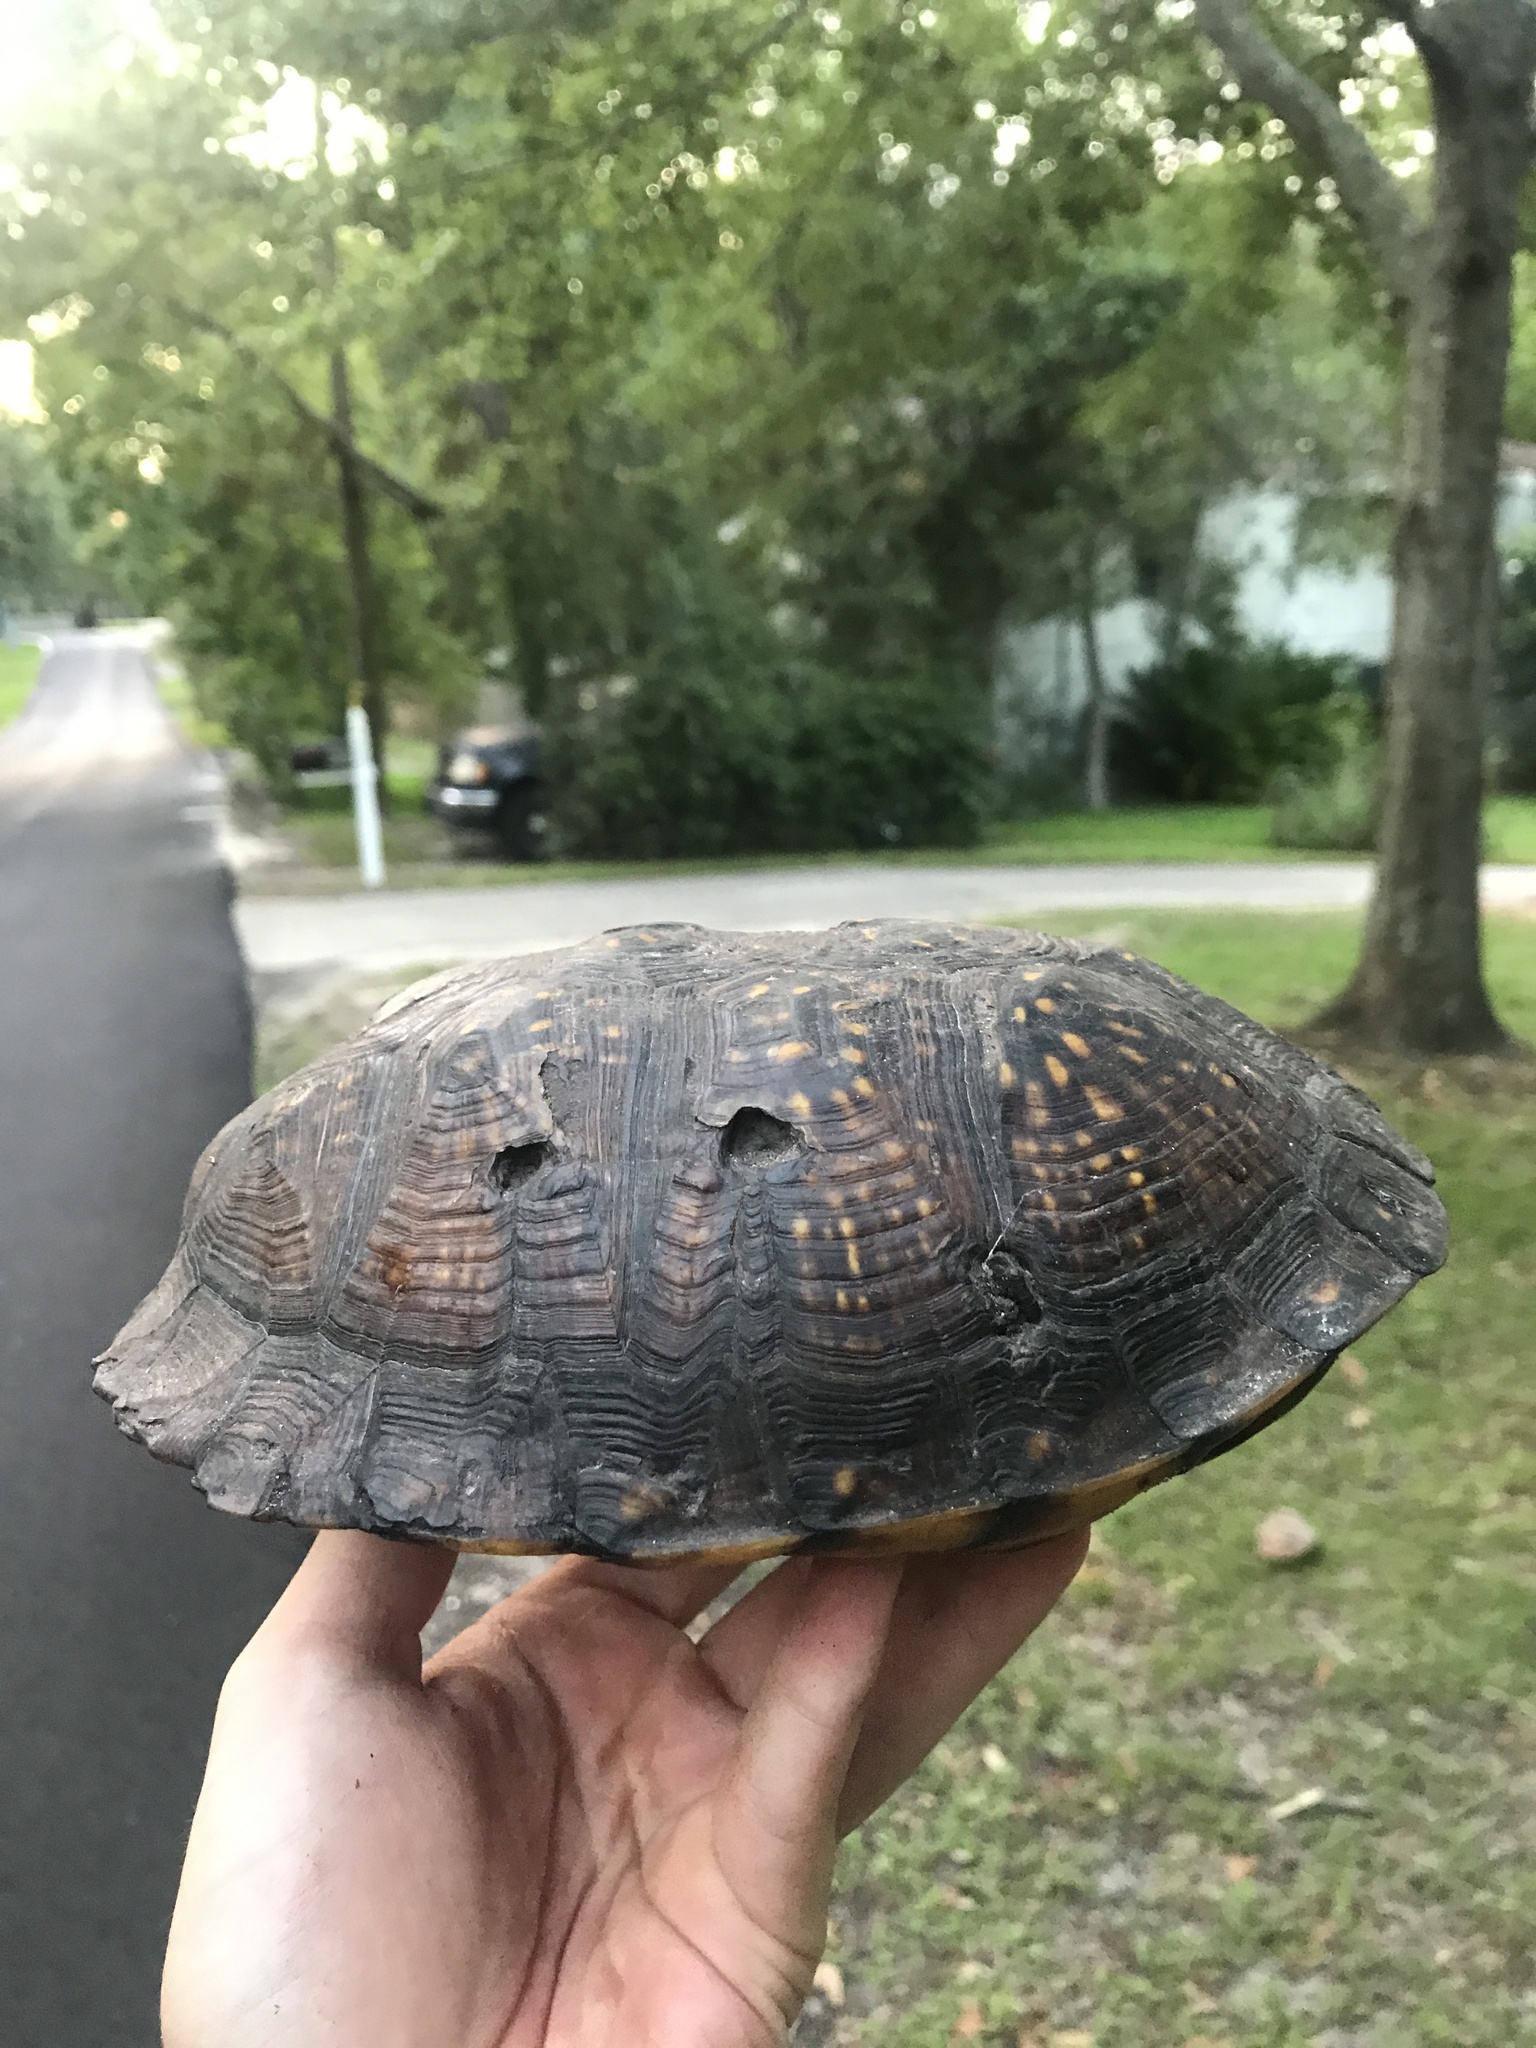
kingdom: Animalia
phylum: Chordata
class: Testudines
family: Emydidae
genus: Terrapene
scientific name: Terrapene carolina
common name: Common box turtle
